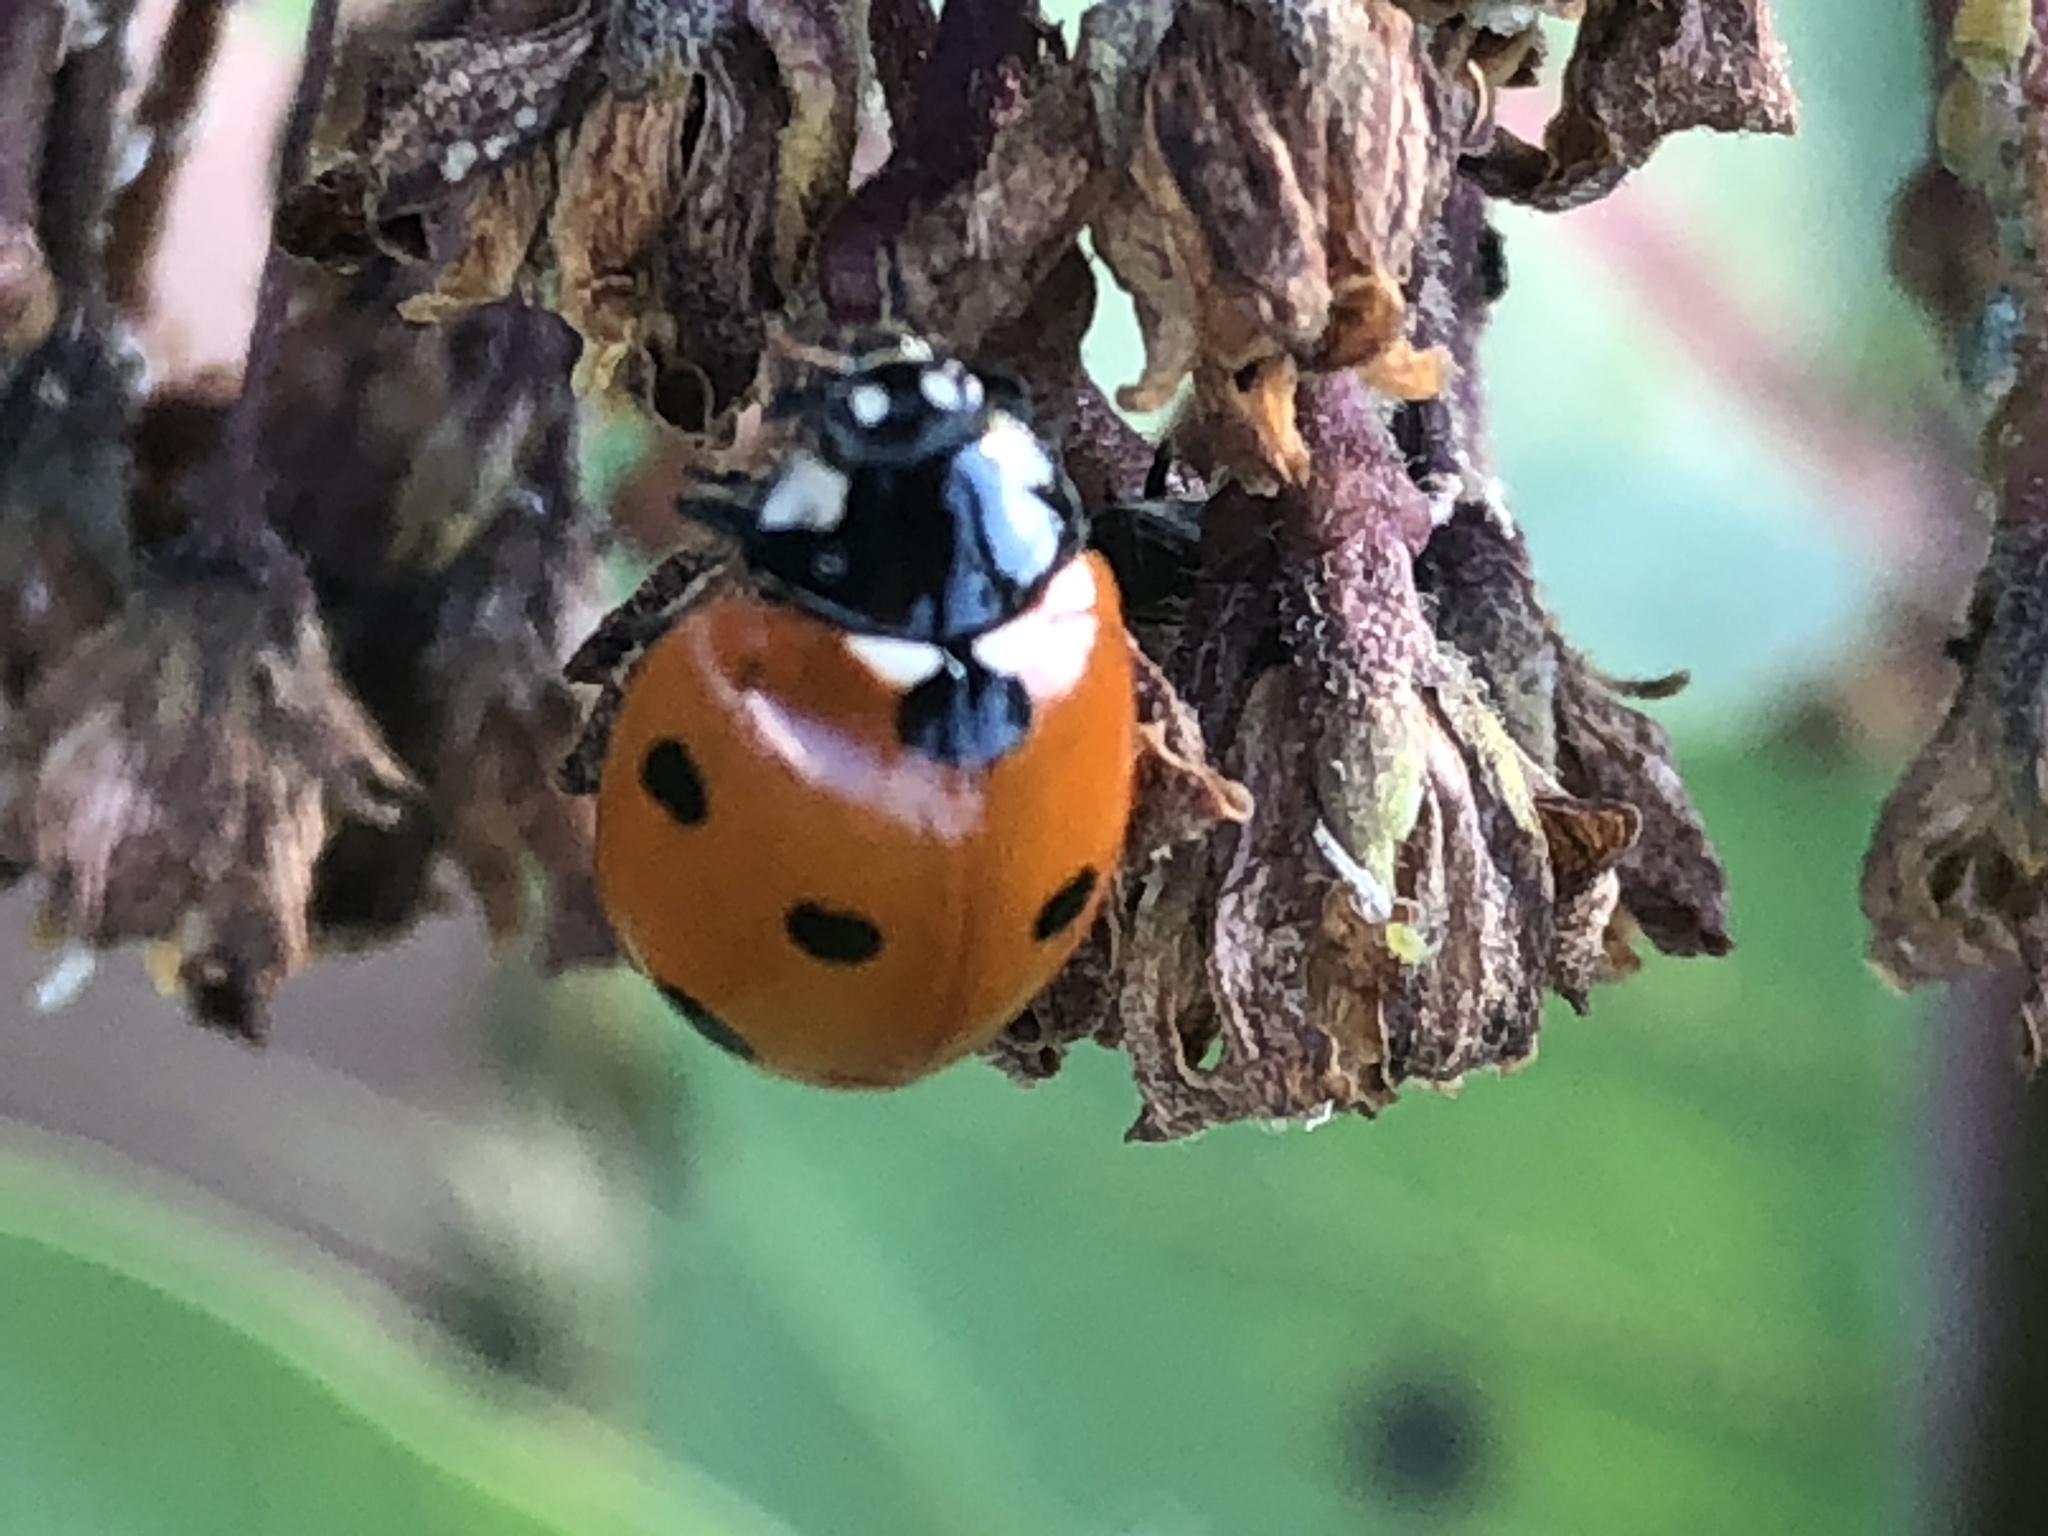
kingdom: Animalia
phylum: Arthropoda
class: Insecta
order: Coleoptera
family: Coccinellidae
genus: Coccinella
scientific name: Coccinella septempunctata
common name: Sevenspotted lady beetle
